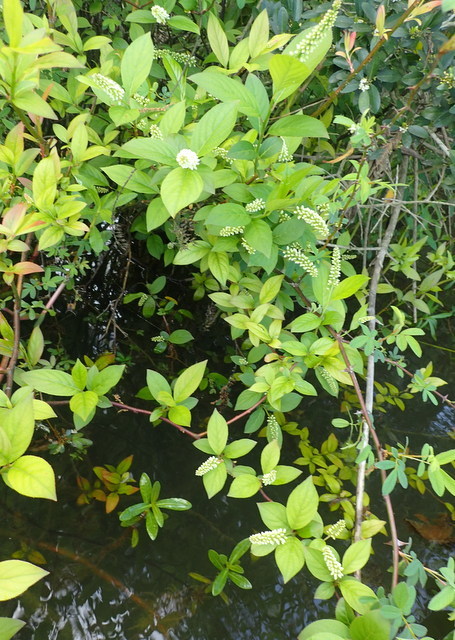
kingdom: Plantae
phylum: Tracheophyta
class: Magnoliopsida
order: Saxifragales
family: Iteaceae
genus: Itea
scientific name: Itea virginica
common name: Sweetspire
